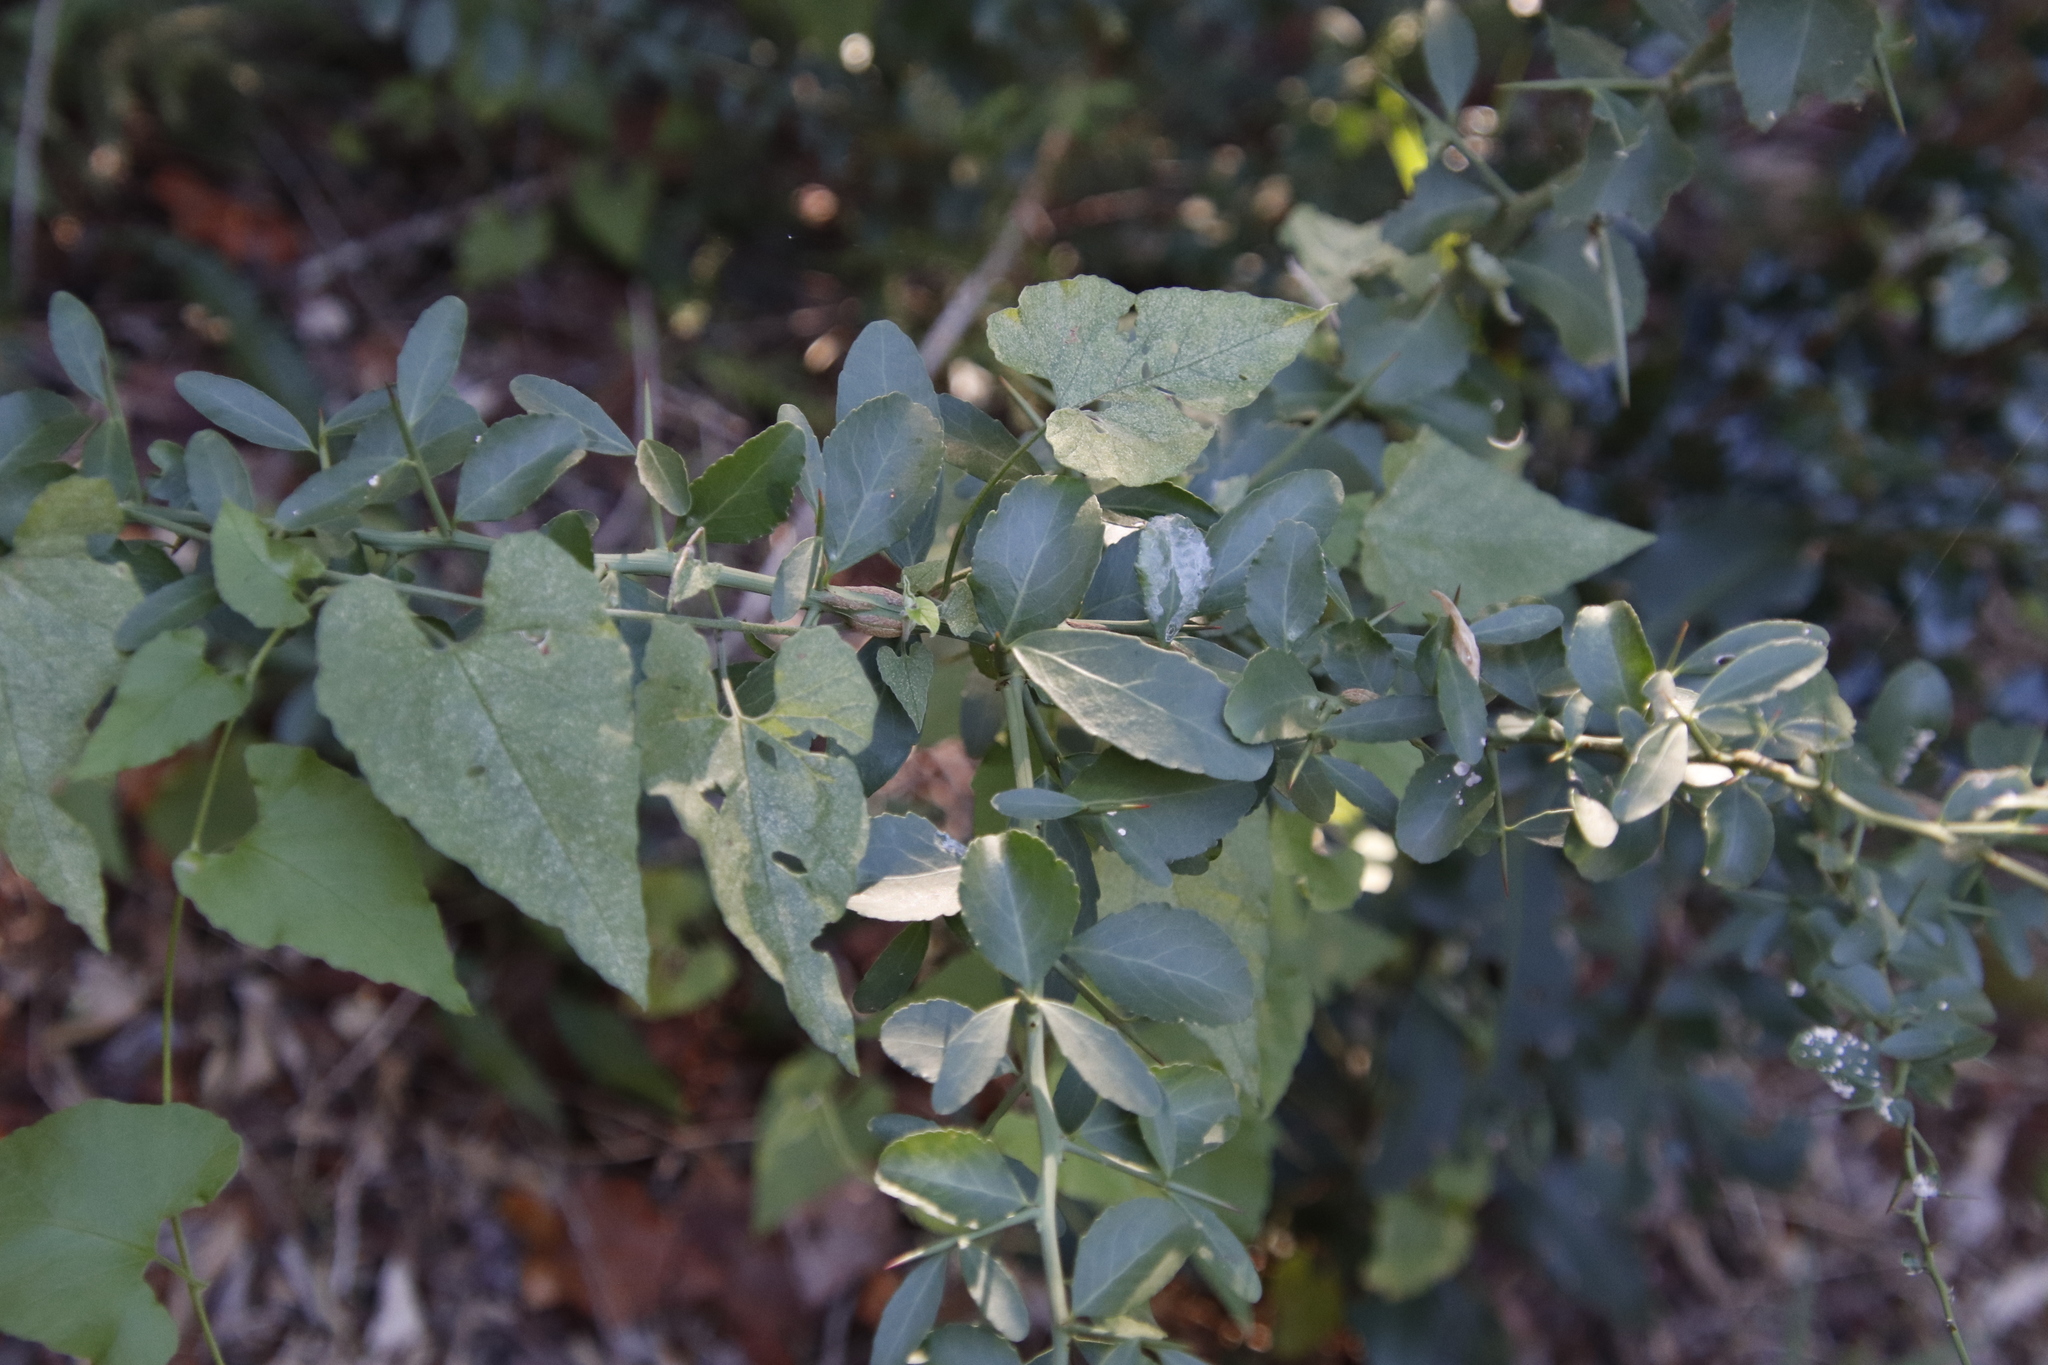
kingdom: Plantae
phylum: Tracheophyta
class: Magnoliopsida
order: Celastrales
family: Celastraceae
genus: Gymnosporia
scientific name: Gymnosporia buxifolia
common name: Common spike-thorn
